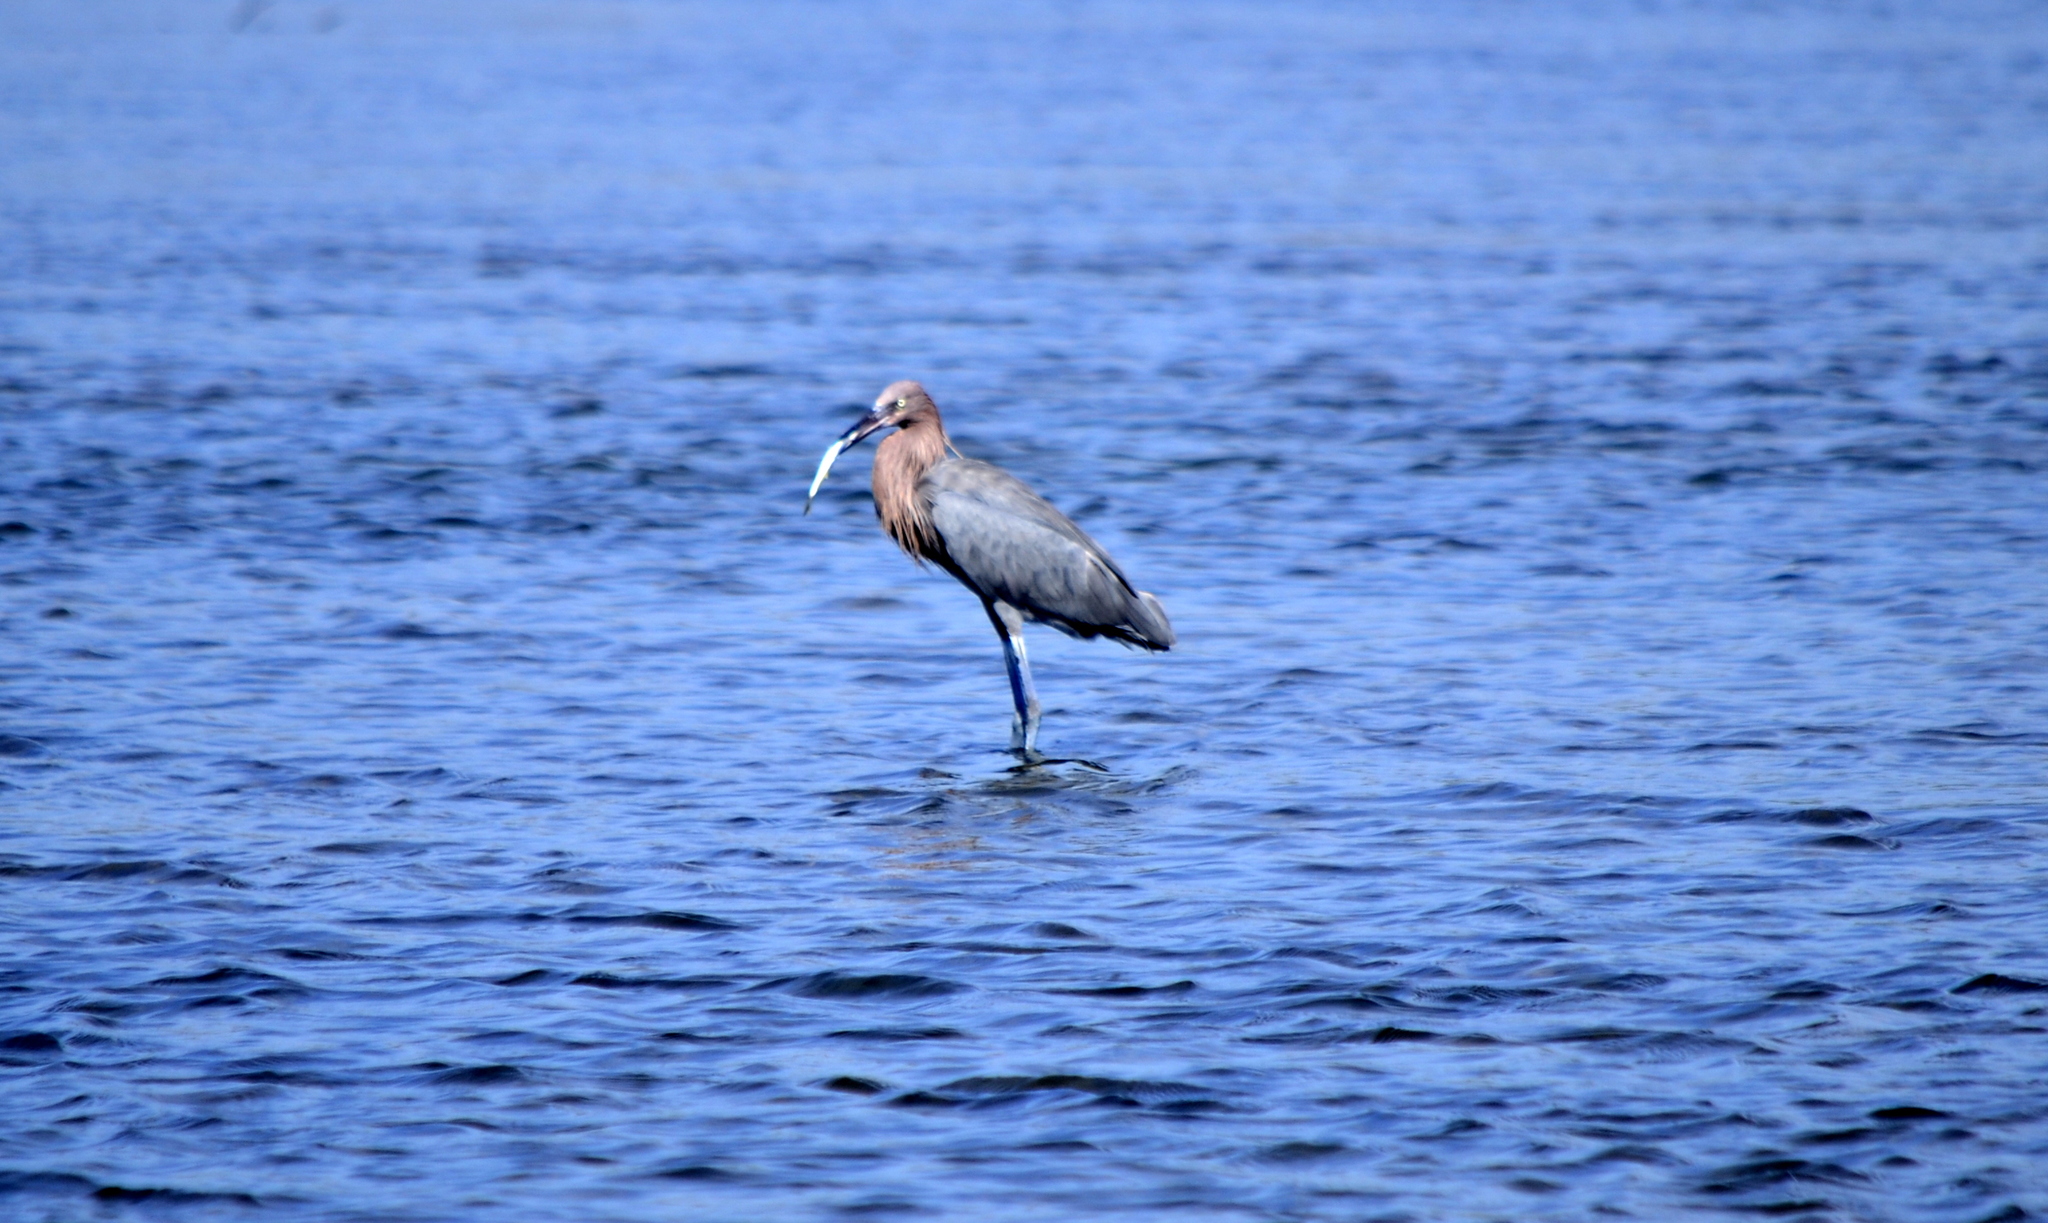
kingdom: Animalia
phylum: Chordata
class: Aves
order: Pelecaniformes
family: Ardeidae
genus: Egretta
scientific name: Egretta rufescens
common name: Reddish egret
